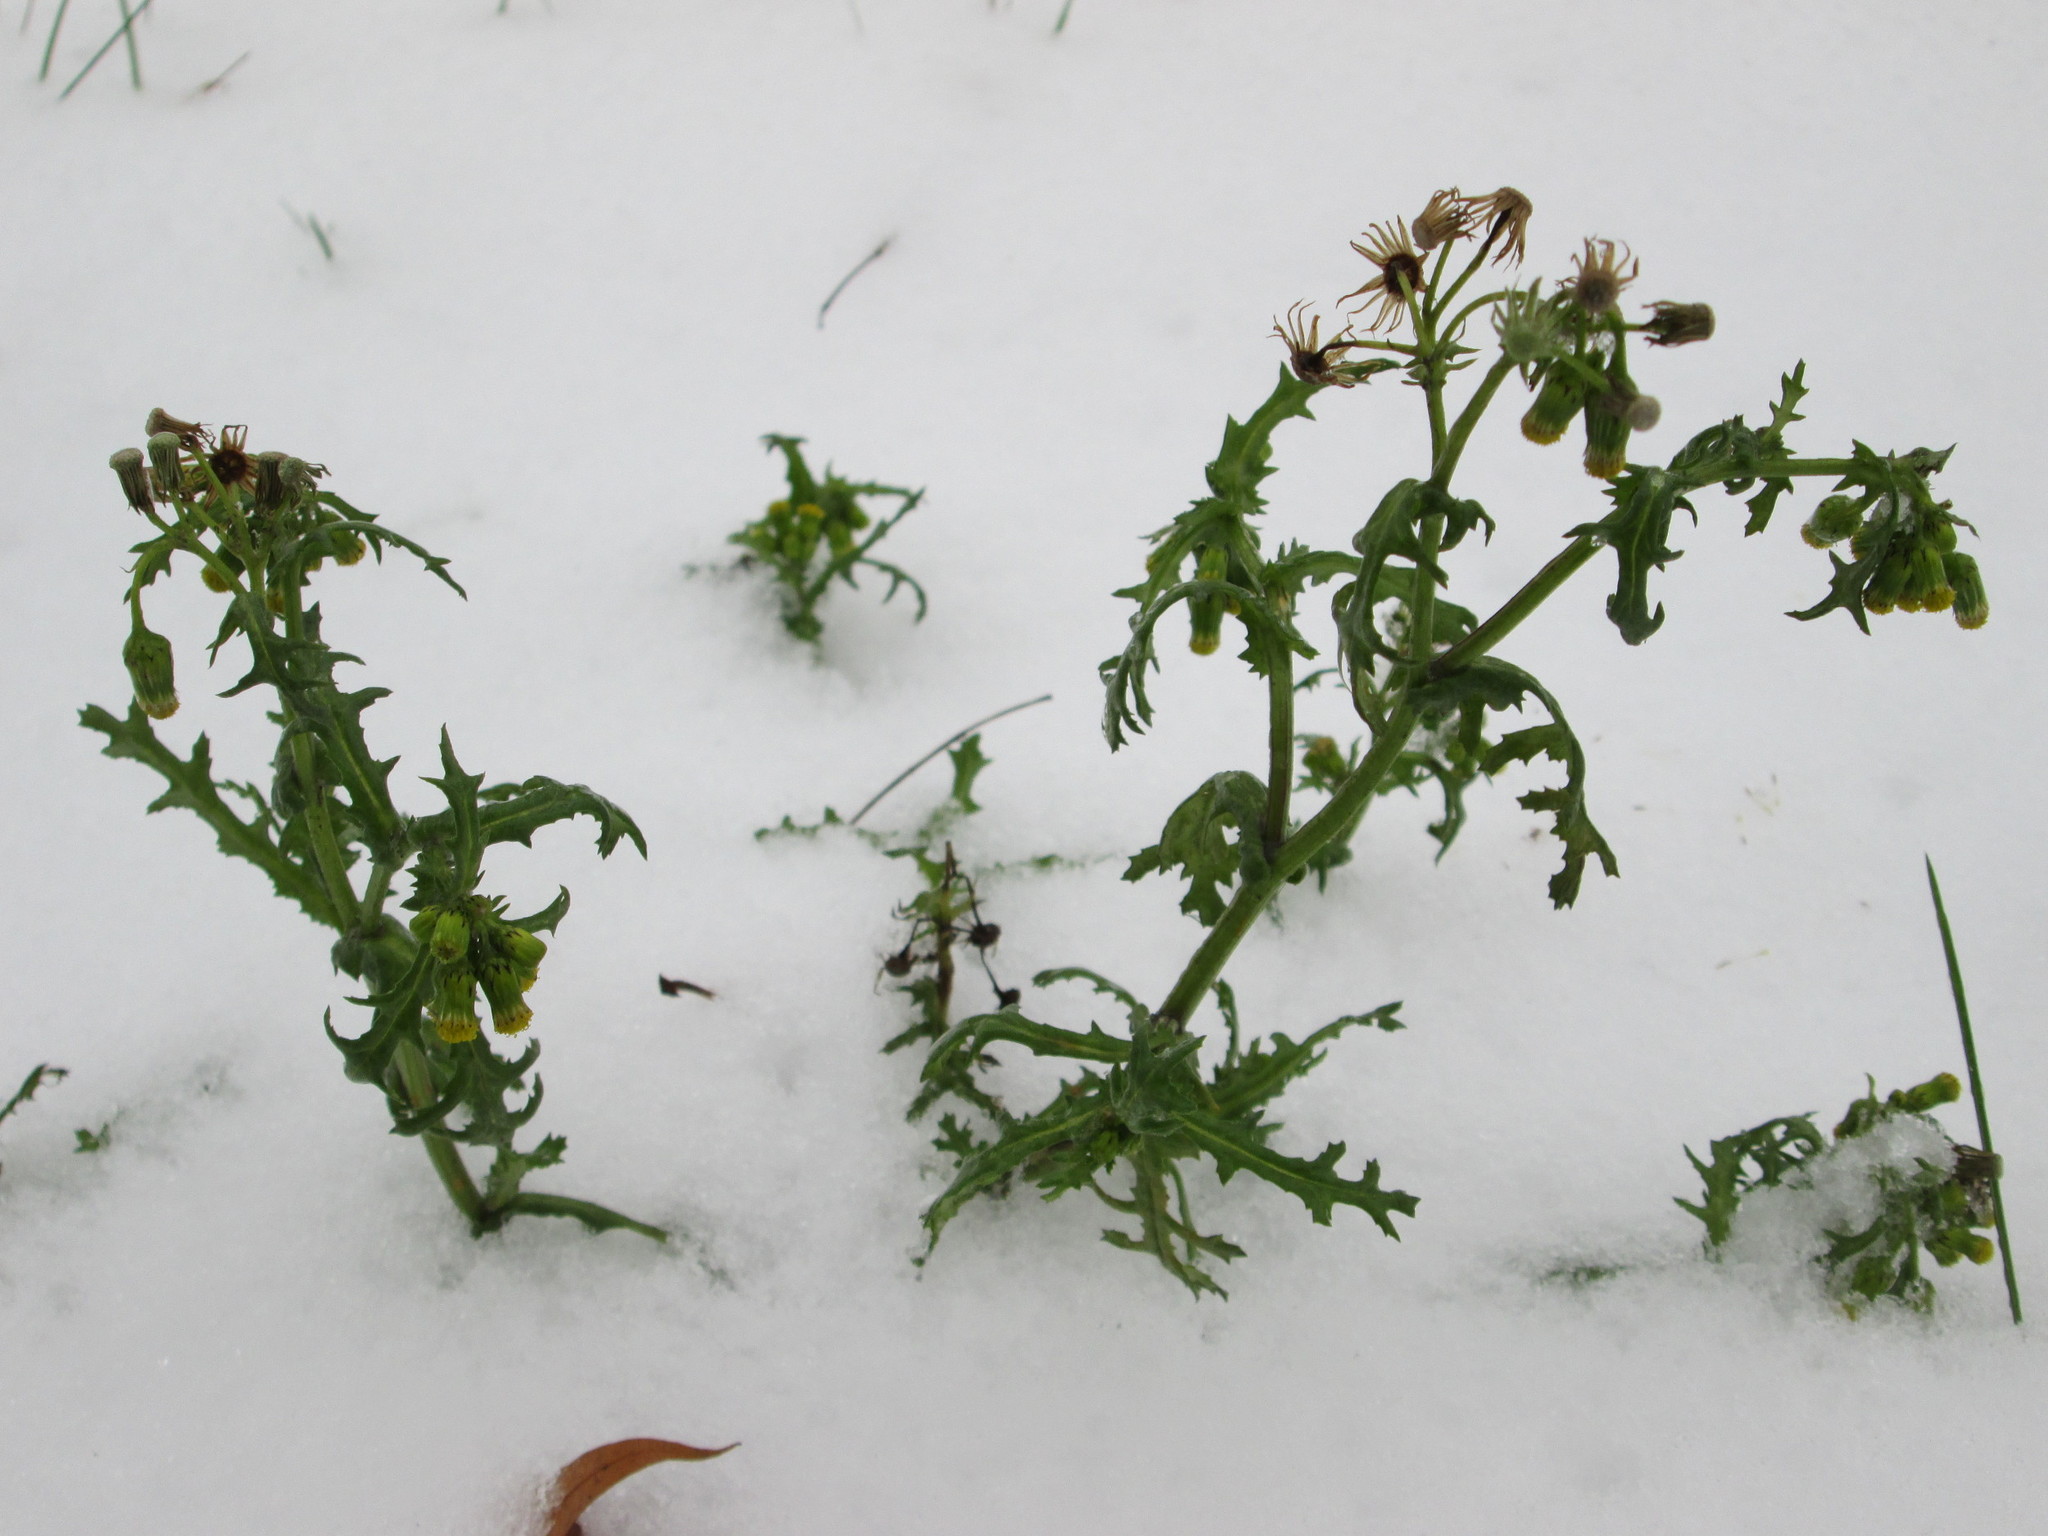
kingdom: Plantae
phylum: Tracheophyta
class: Magnoliopsida
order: Asterales
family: Asteraceae
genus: Senecio
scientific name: Senecio vulgaris
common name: Old-man-in-the-spring
